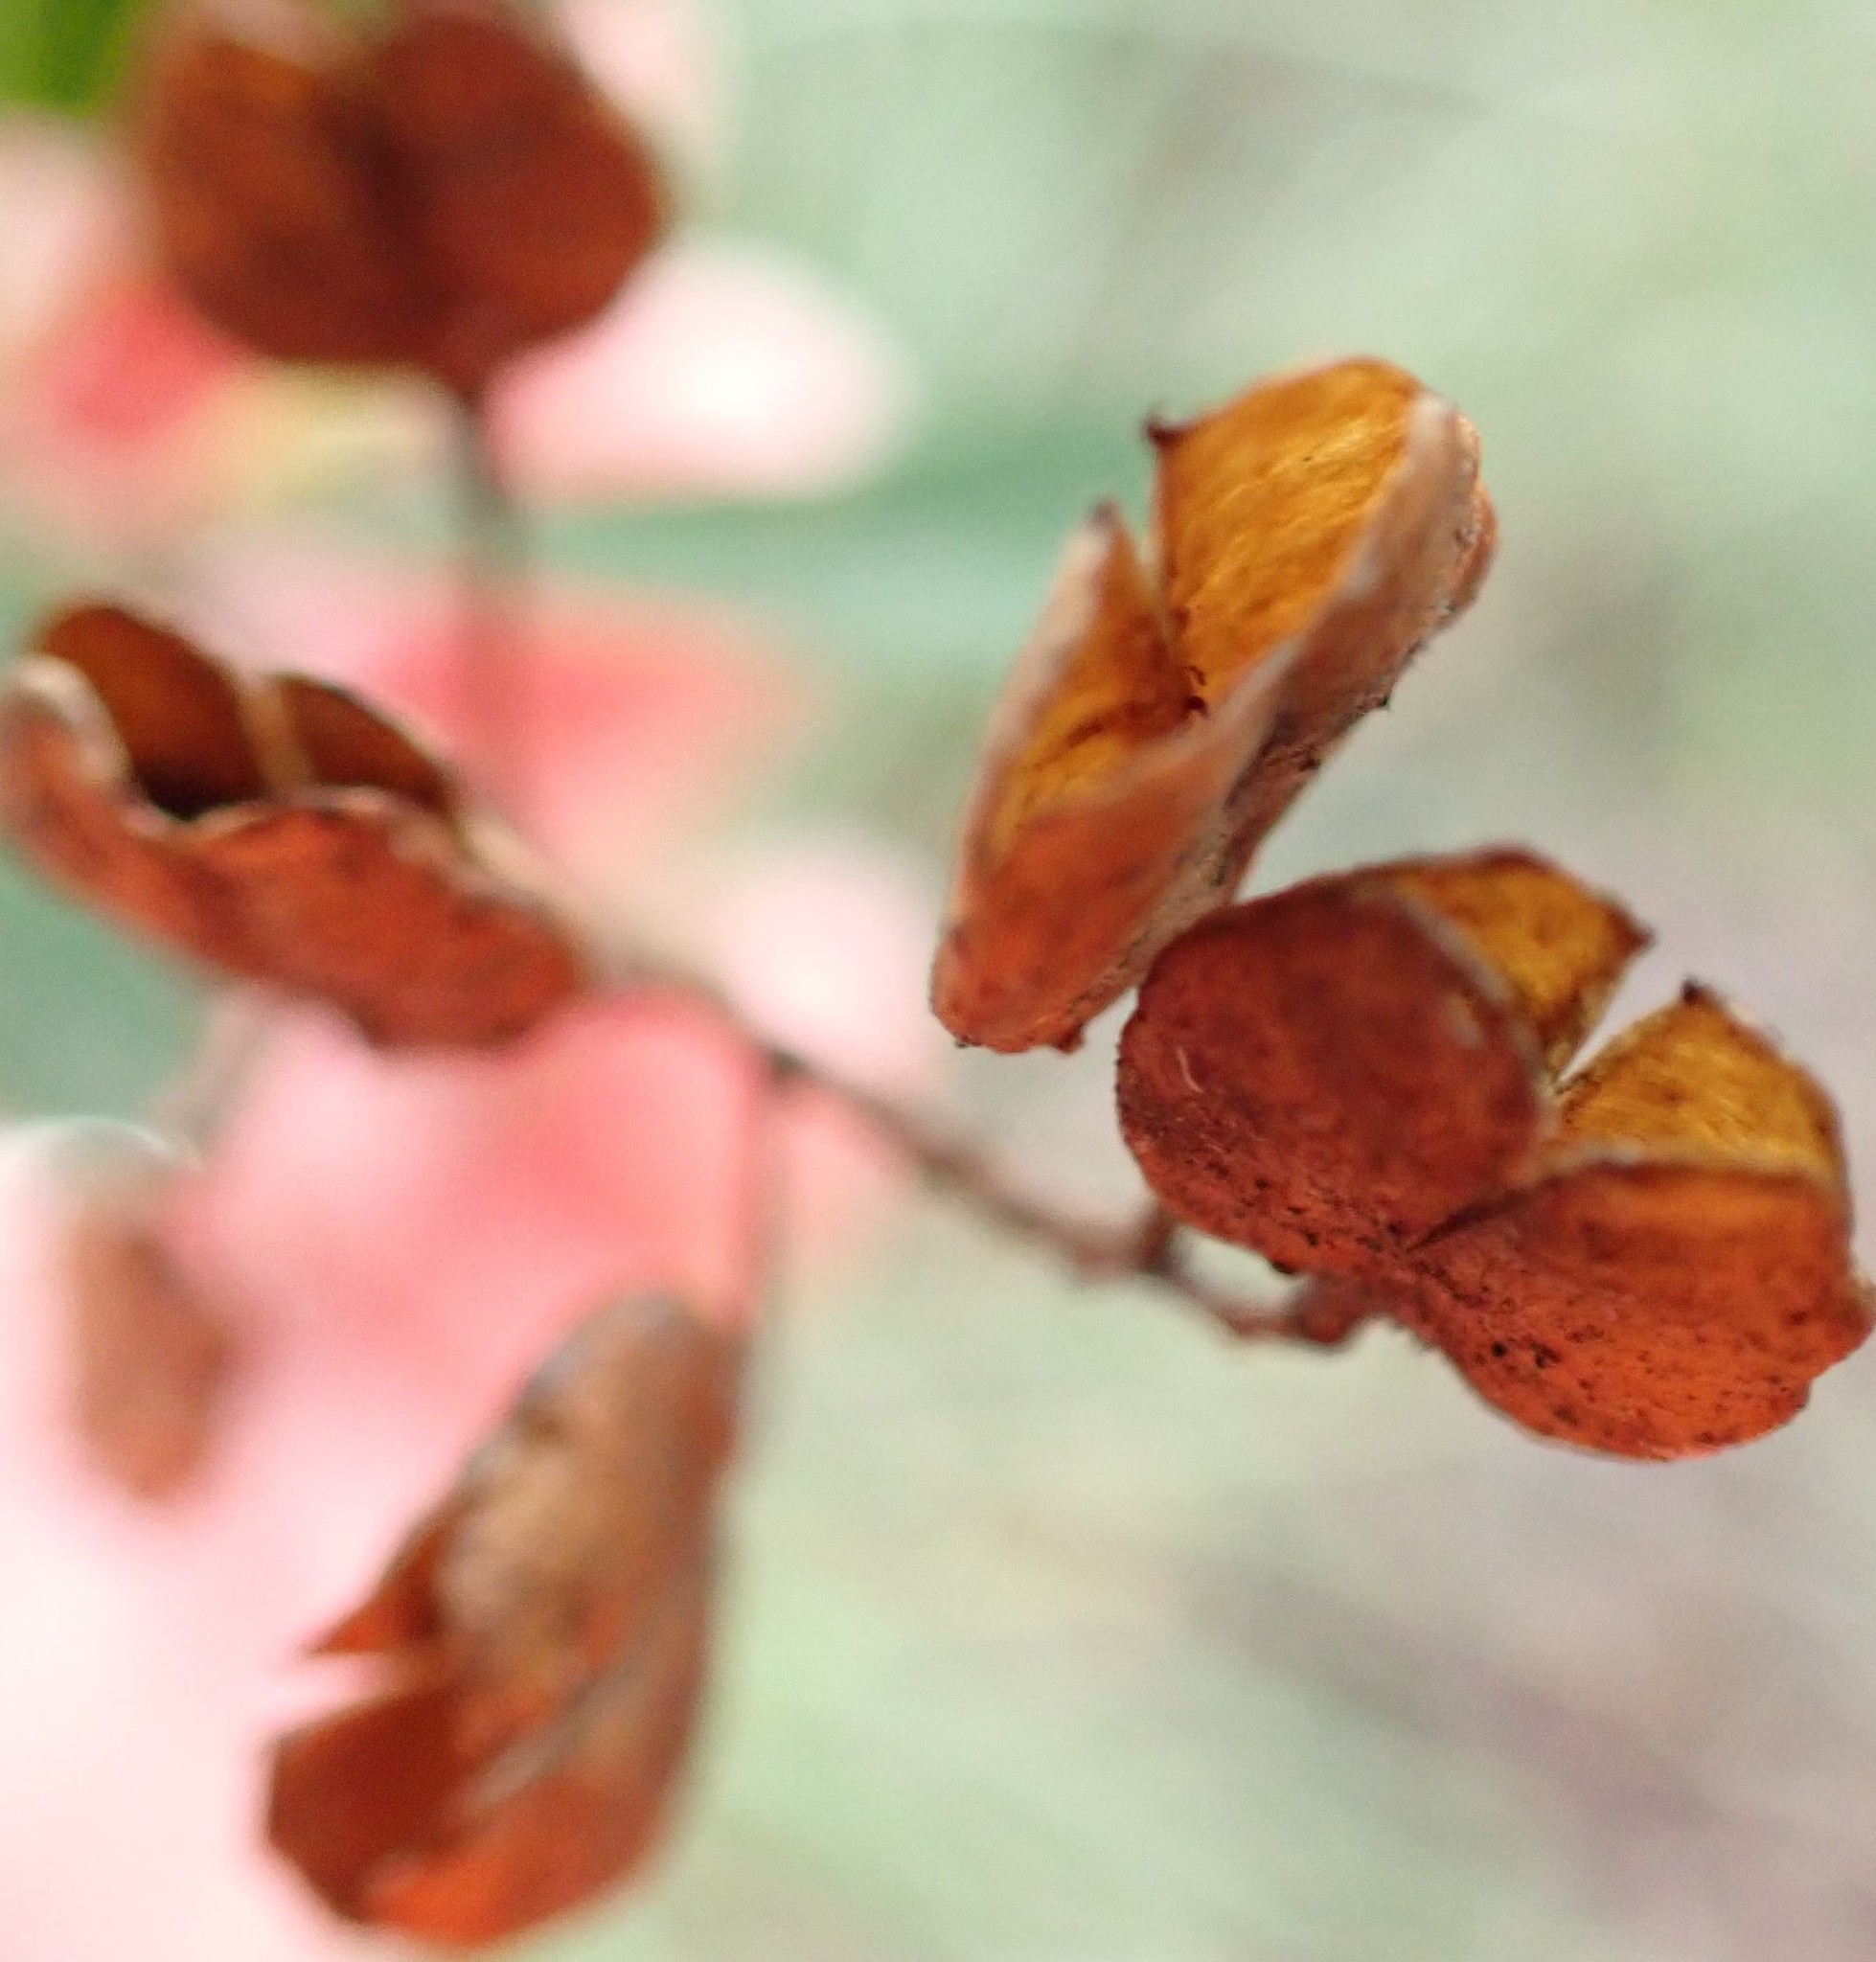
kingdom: Plantae
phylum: Tracheophyta
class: Magnoliopsida
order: Apiales
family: Pittosporaceae
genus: Bursaria
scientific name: Bursaria spinosa
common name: Australian blackthorn
